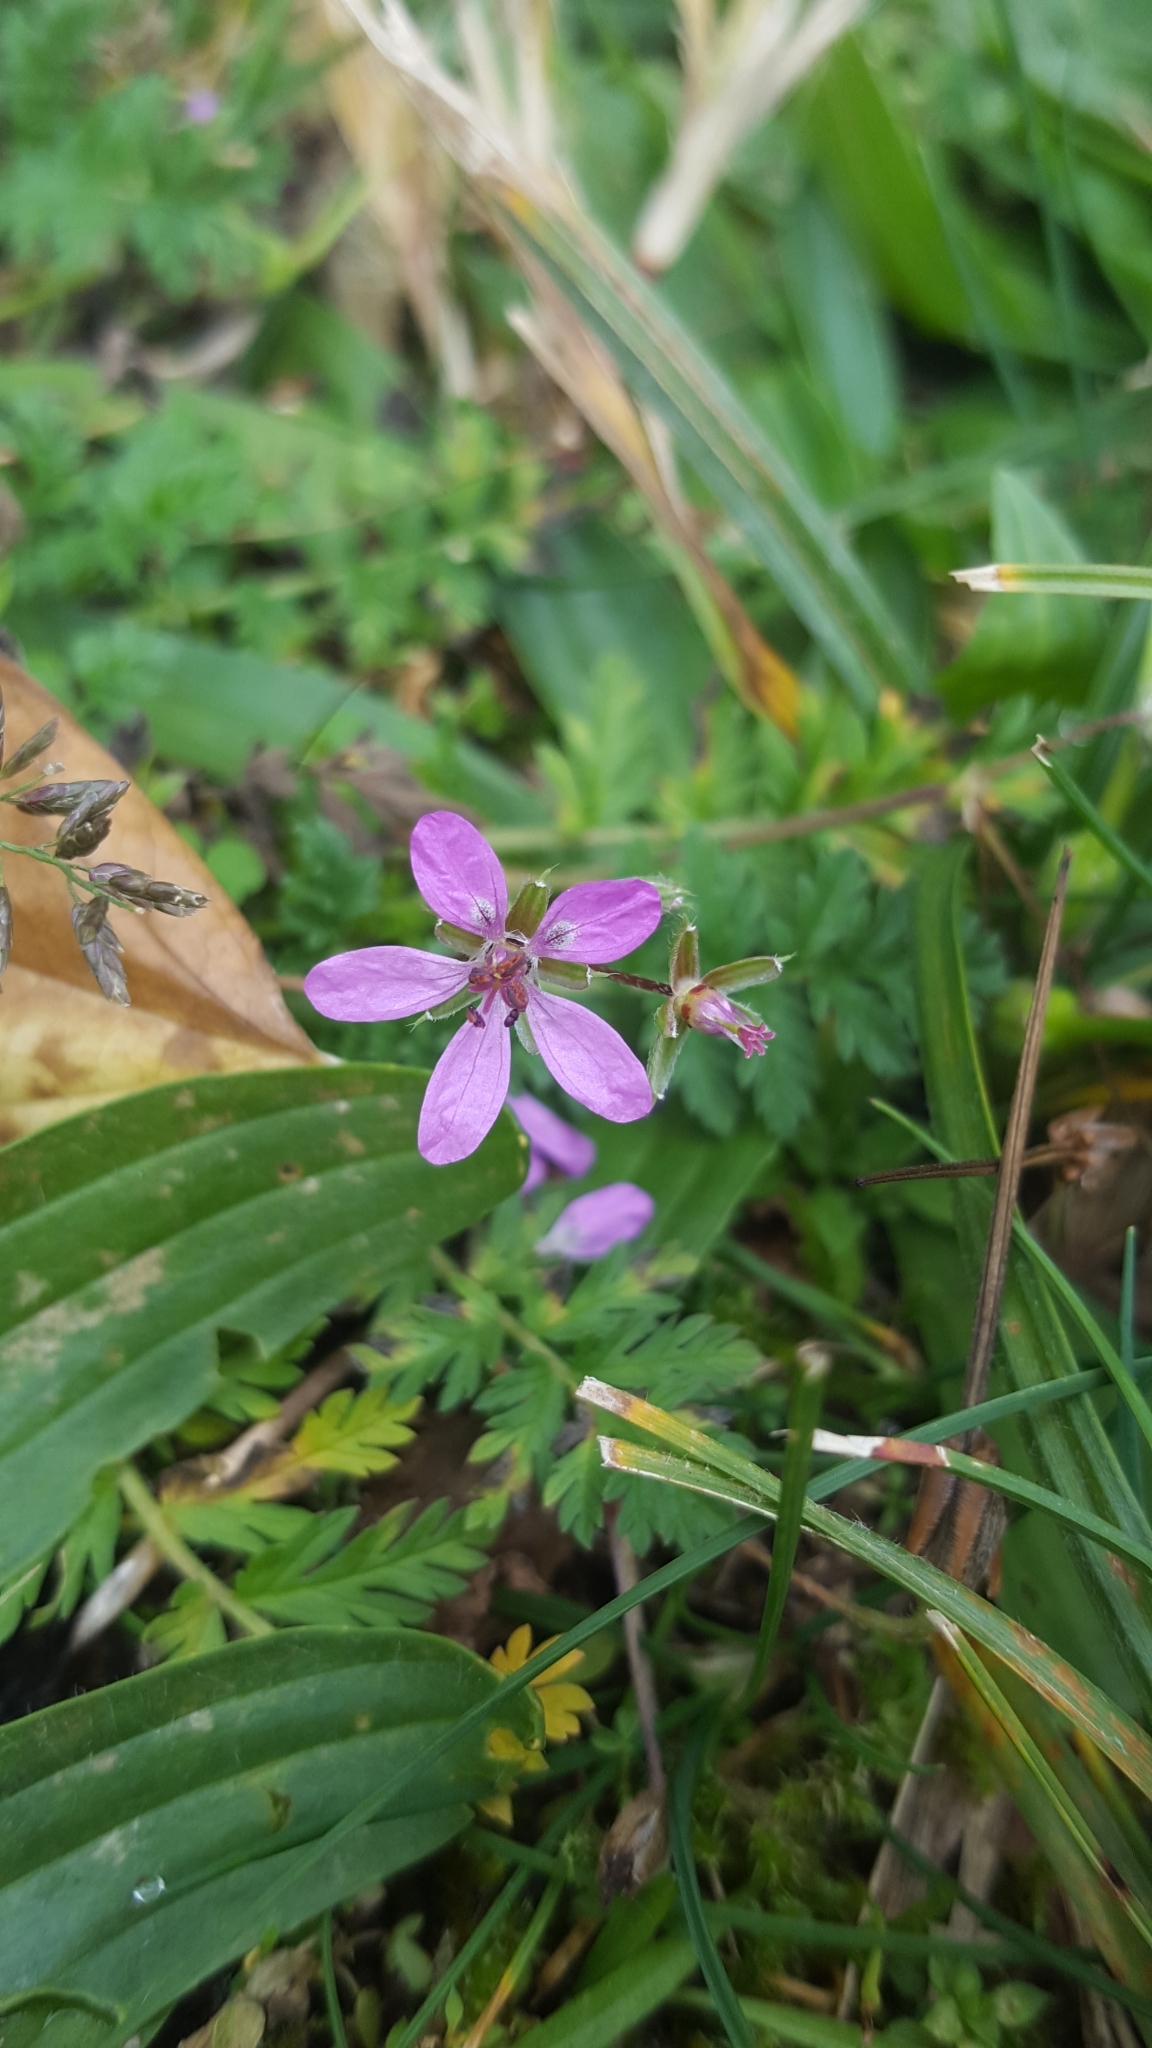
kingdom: Plantae
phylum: Tracheophyta
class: Magnoliopsida
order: Geraniales
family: Geraniaceae
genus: Erodium
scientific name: Erodium cicutarium
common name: Common stork's-bill
